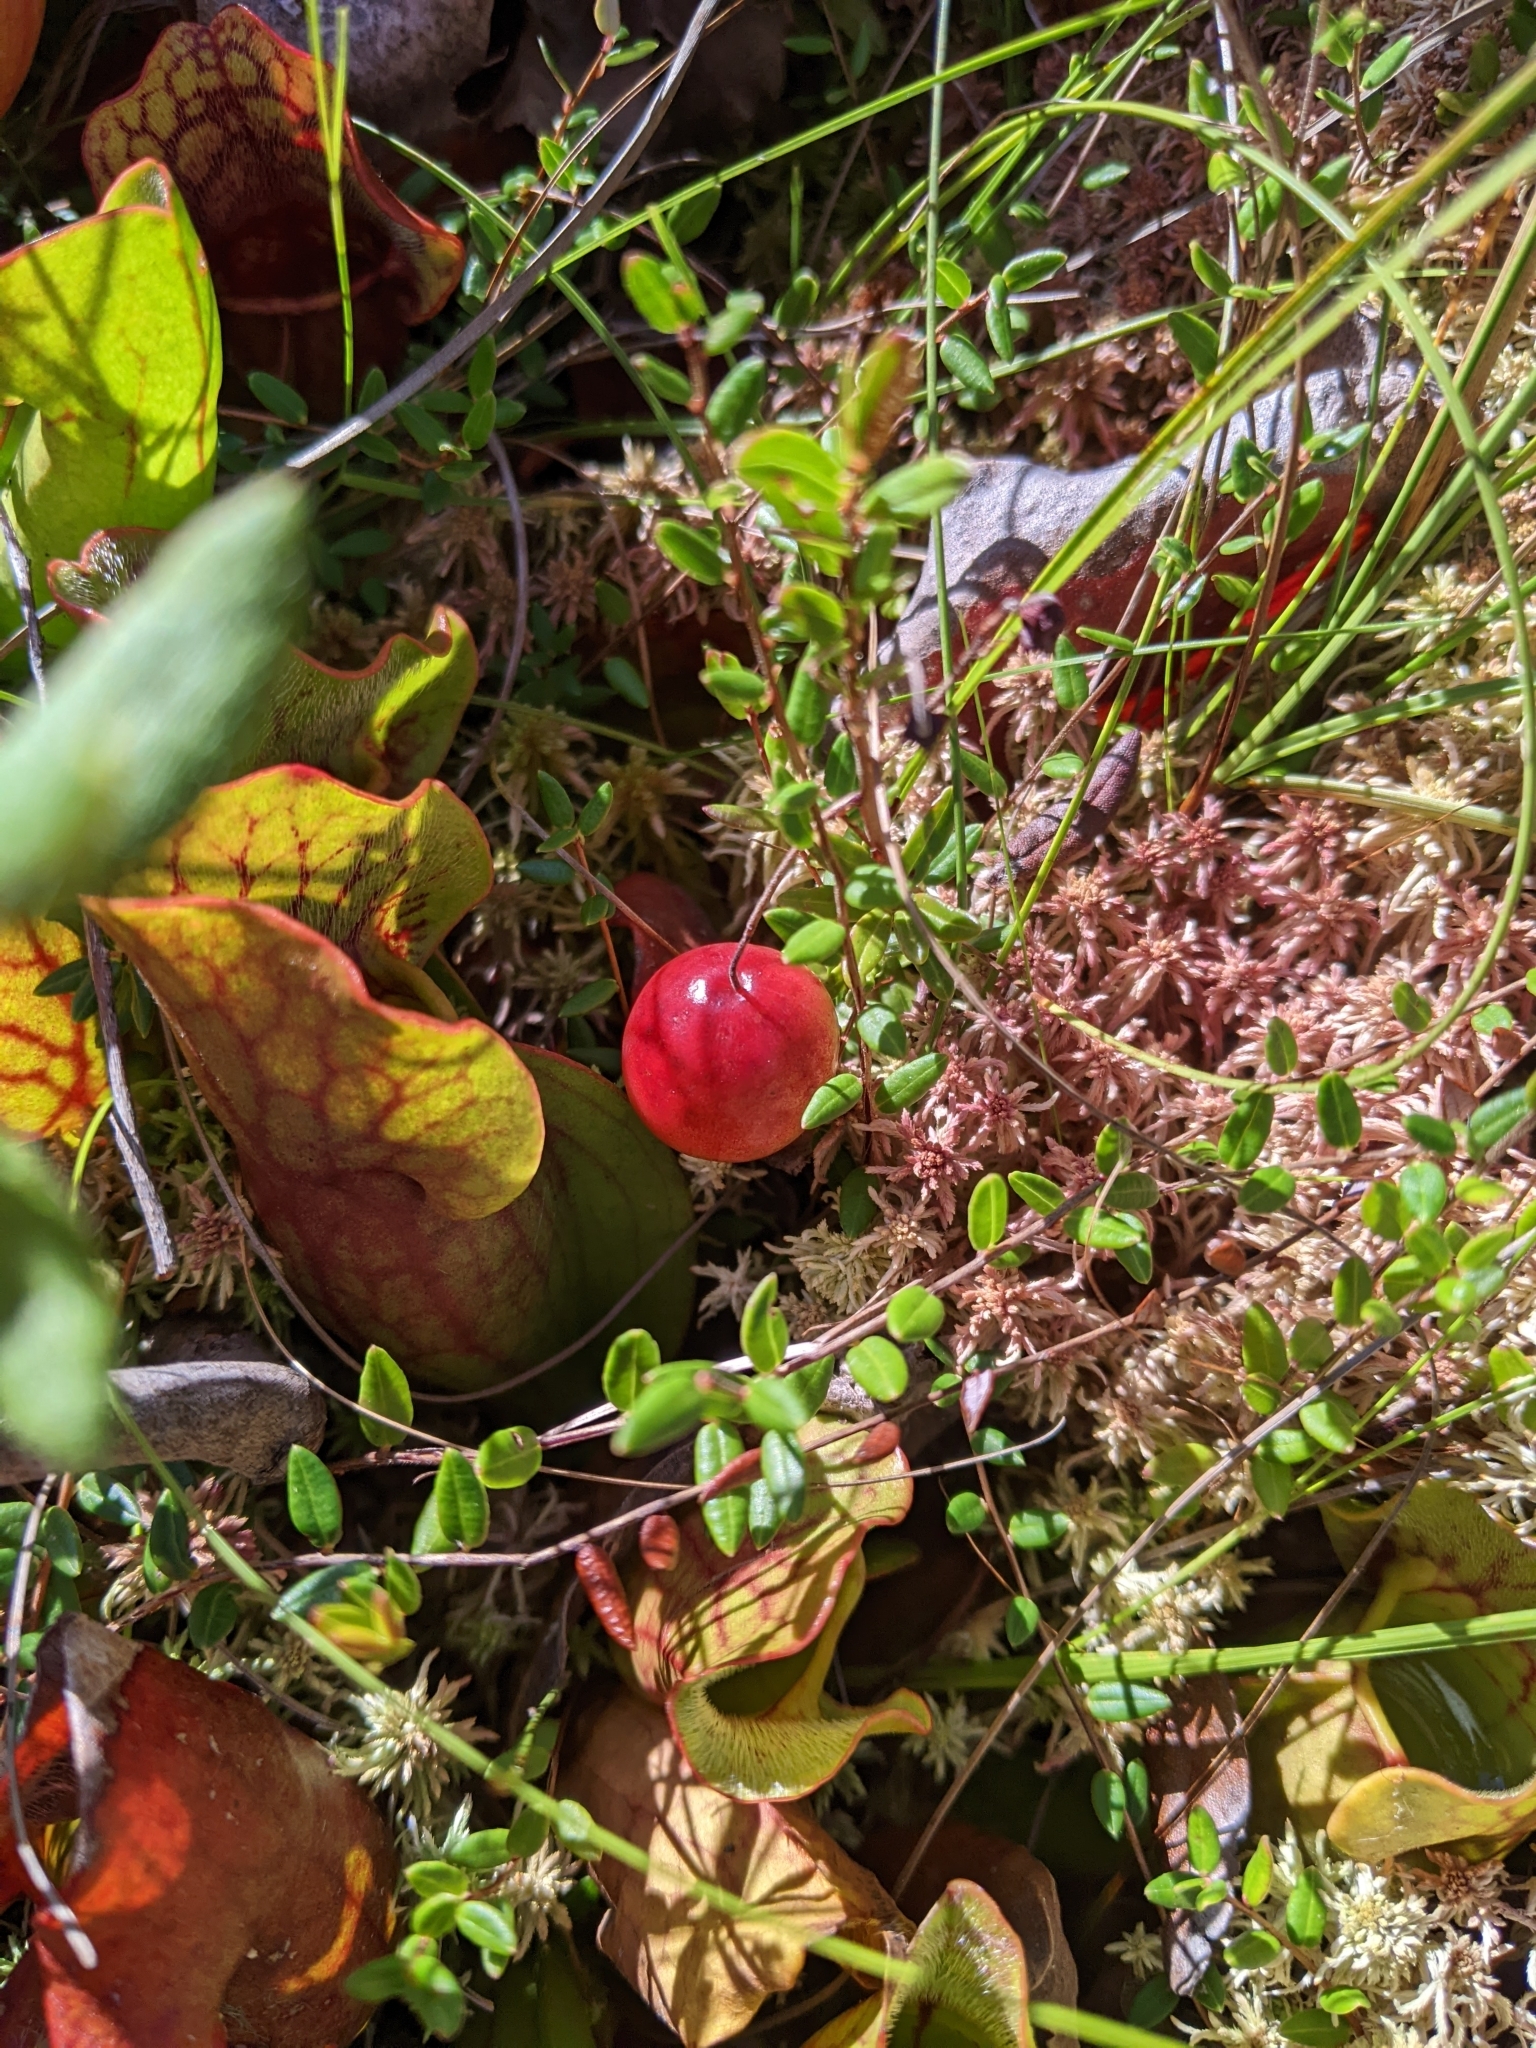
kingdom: Plantae
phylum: Tracheophyta
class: Magnoliopsida
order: Ericales
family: Ericaceae
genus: Vaccinium
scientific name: Vaccinium oxycoccos
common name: Cranberry
